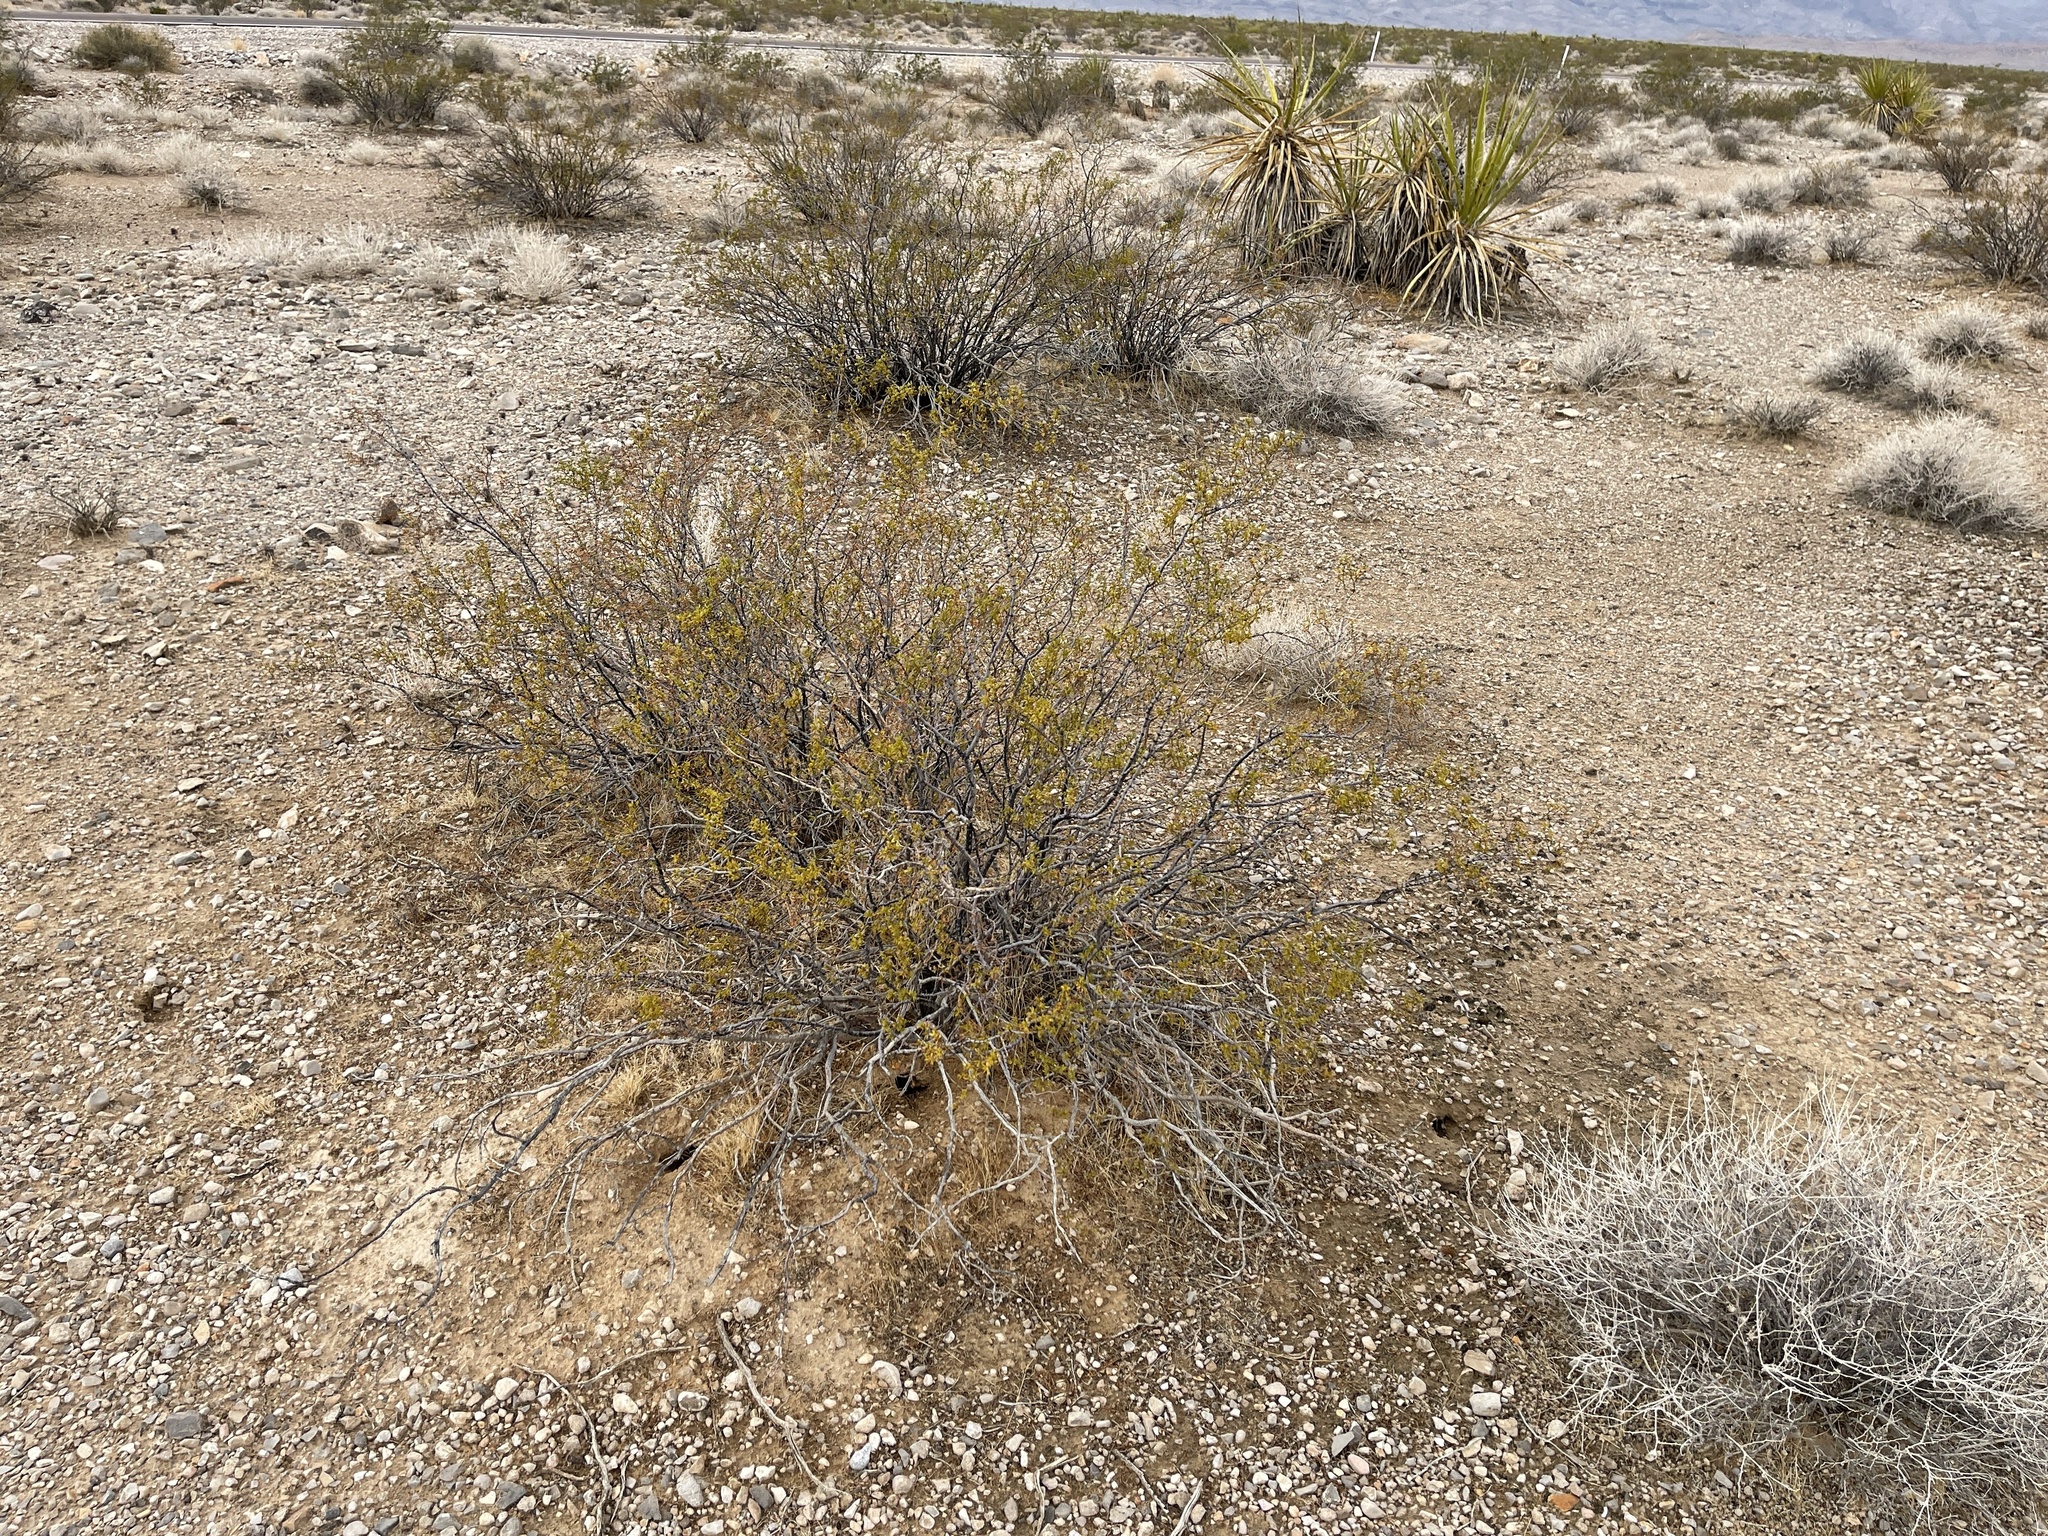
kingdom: Plantae
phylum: Tracheophyta
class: Magnoliopsida
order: Zygophyllales
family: Zygophyllaceae
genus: Larrea
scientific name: Larrea tridentata
